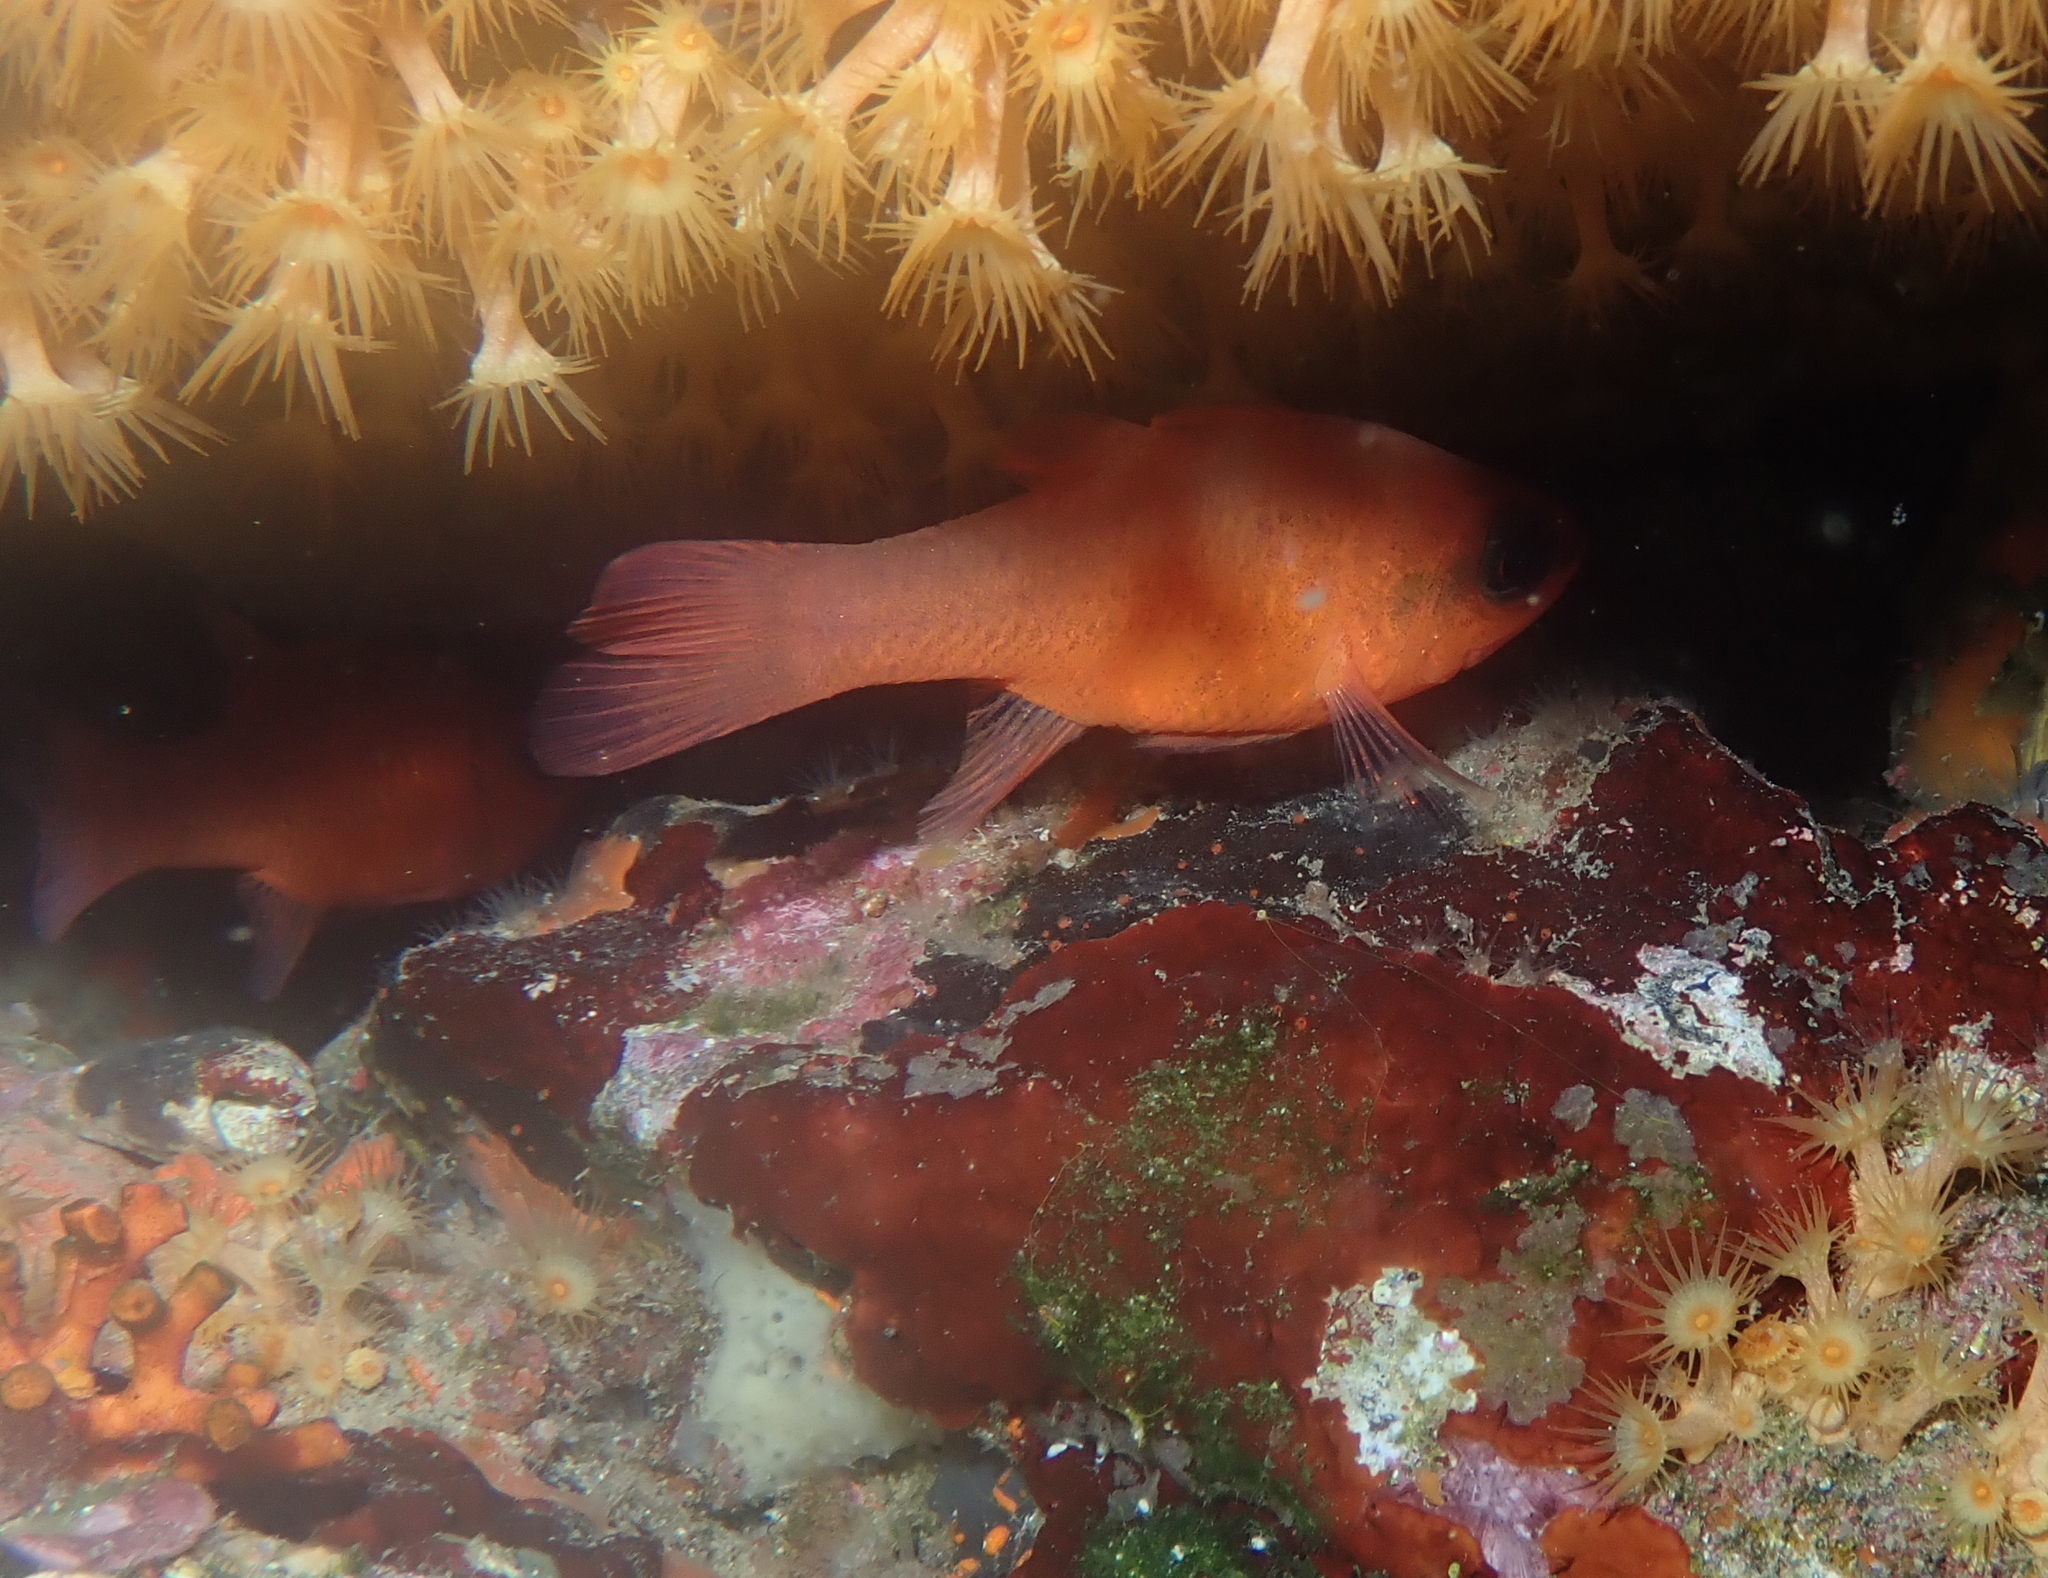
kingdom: Animalia
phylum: Chordata
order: Perciformes
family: Apogonidae
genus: Apogon
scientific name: Apogon imberbis
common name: Cardinal fish
